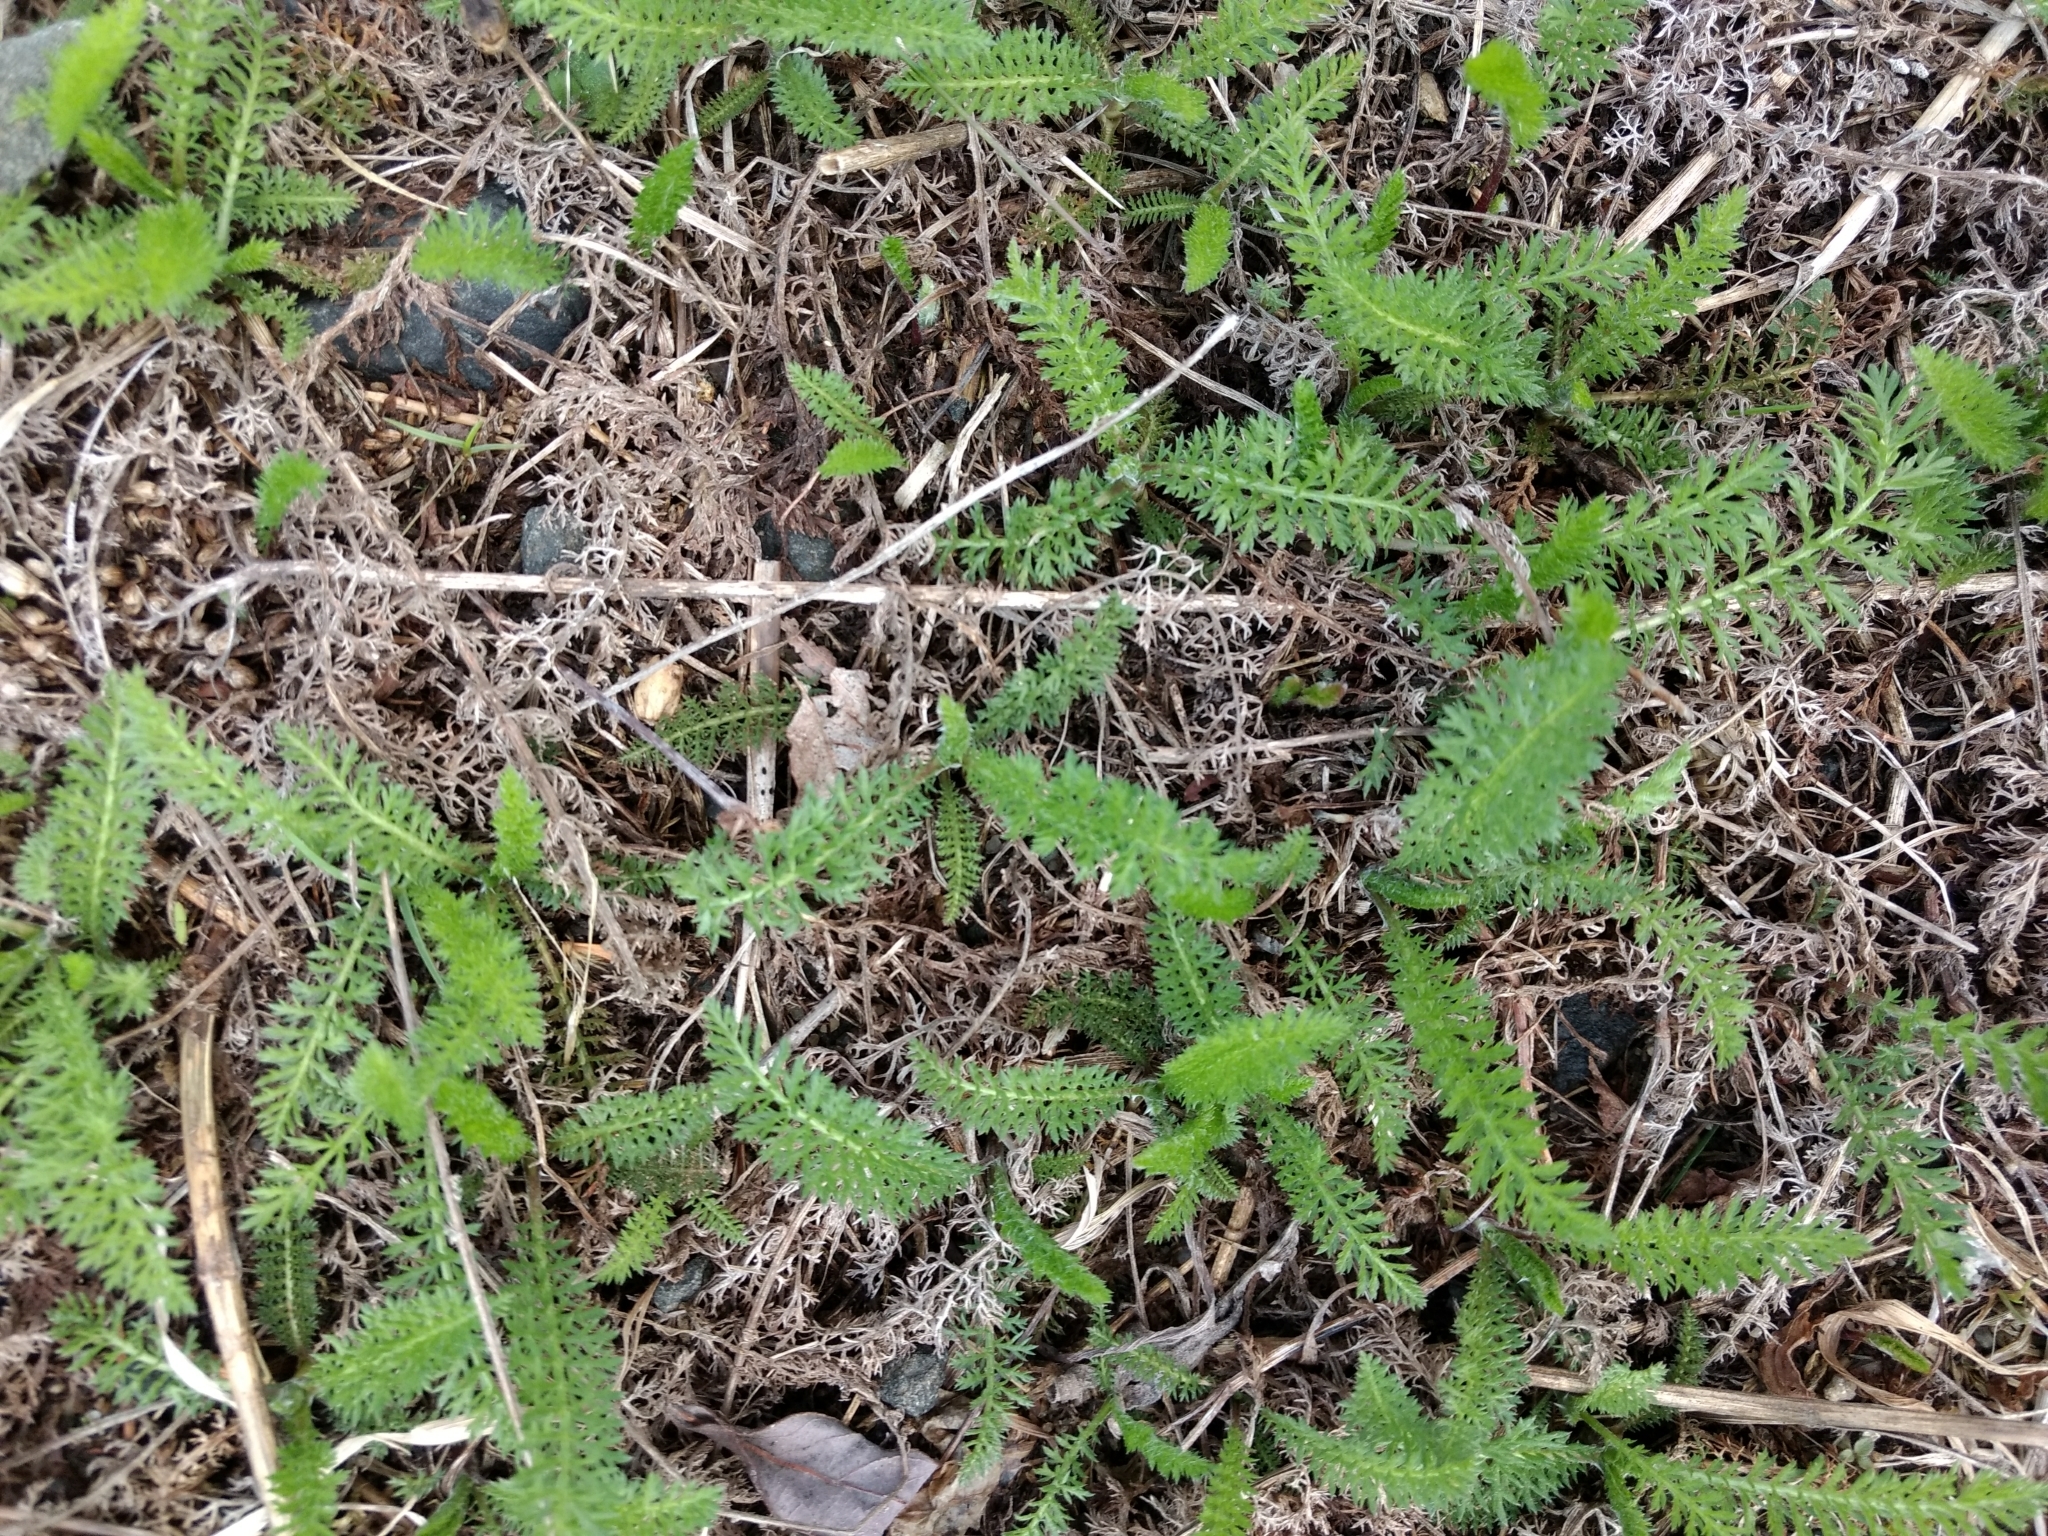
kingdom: Plantae
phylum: Tracheophyta
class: Magnoliopsida
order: Asterales
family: Asteraceae
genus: Achillea
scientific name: Achillea millefolium
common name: Yarrow
